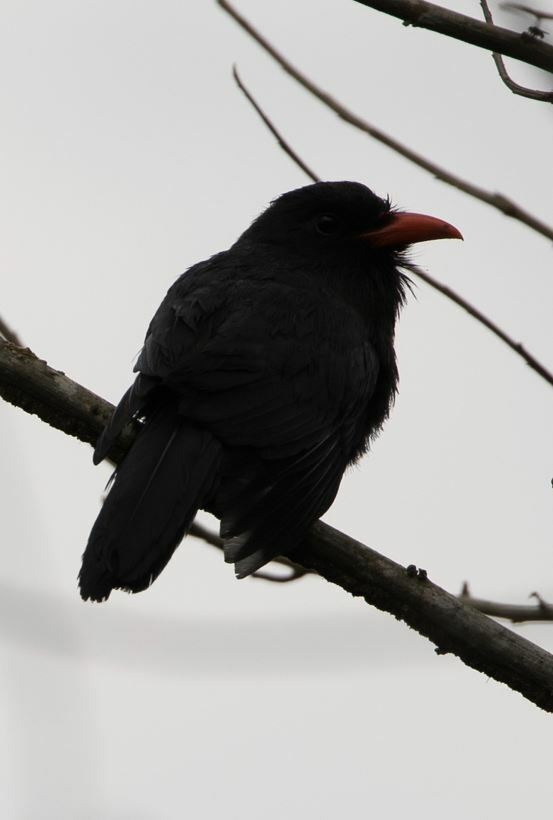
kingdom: Animalia
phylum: Chordata
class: Aves
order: Piciformes
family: Bucconidae
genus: Monasa
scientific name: Monasa nigrifrons
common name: Black-fronted nunbird
